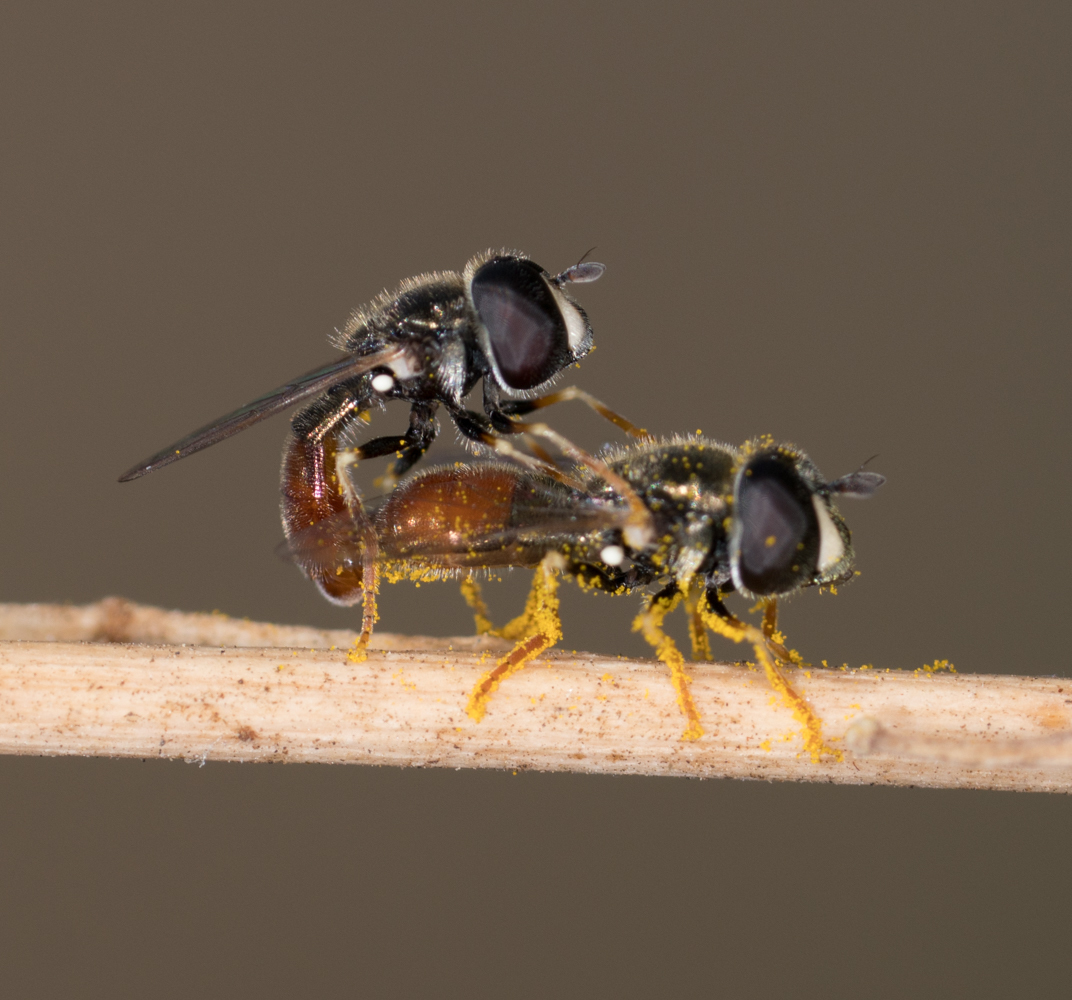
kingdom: Animalia
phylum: Arthropoda
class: Insecta
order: Diptera
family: Syrphidae
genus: Paragus
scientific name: Paragus haemorrhous
